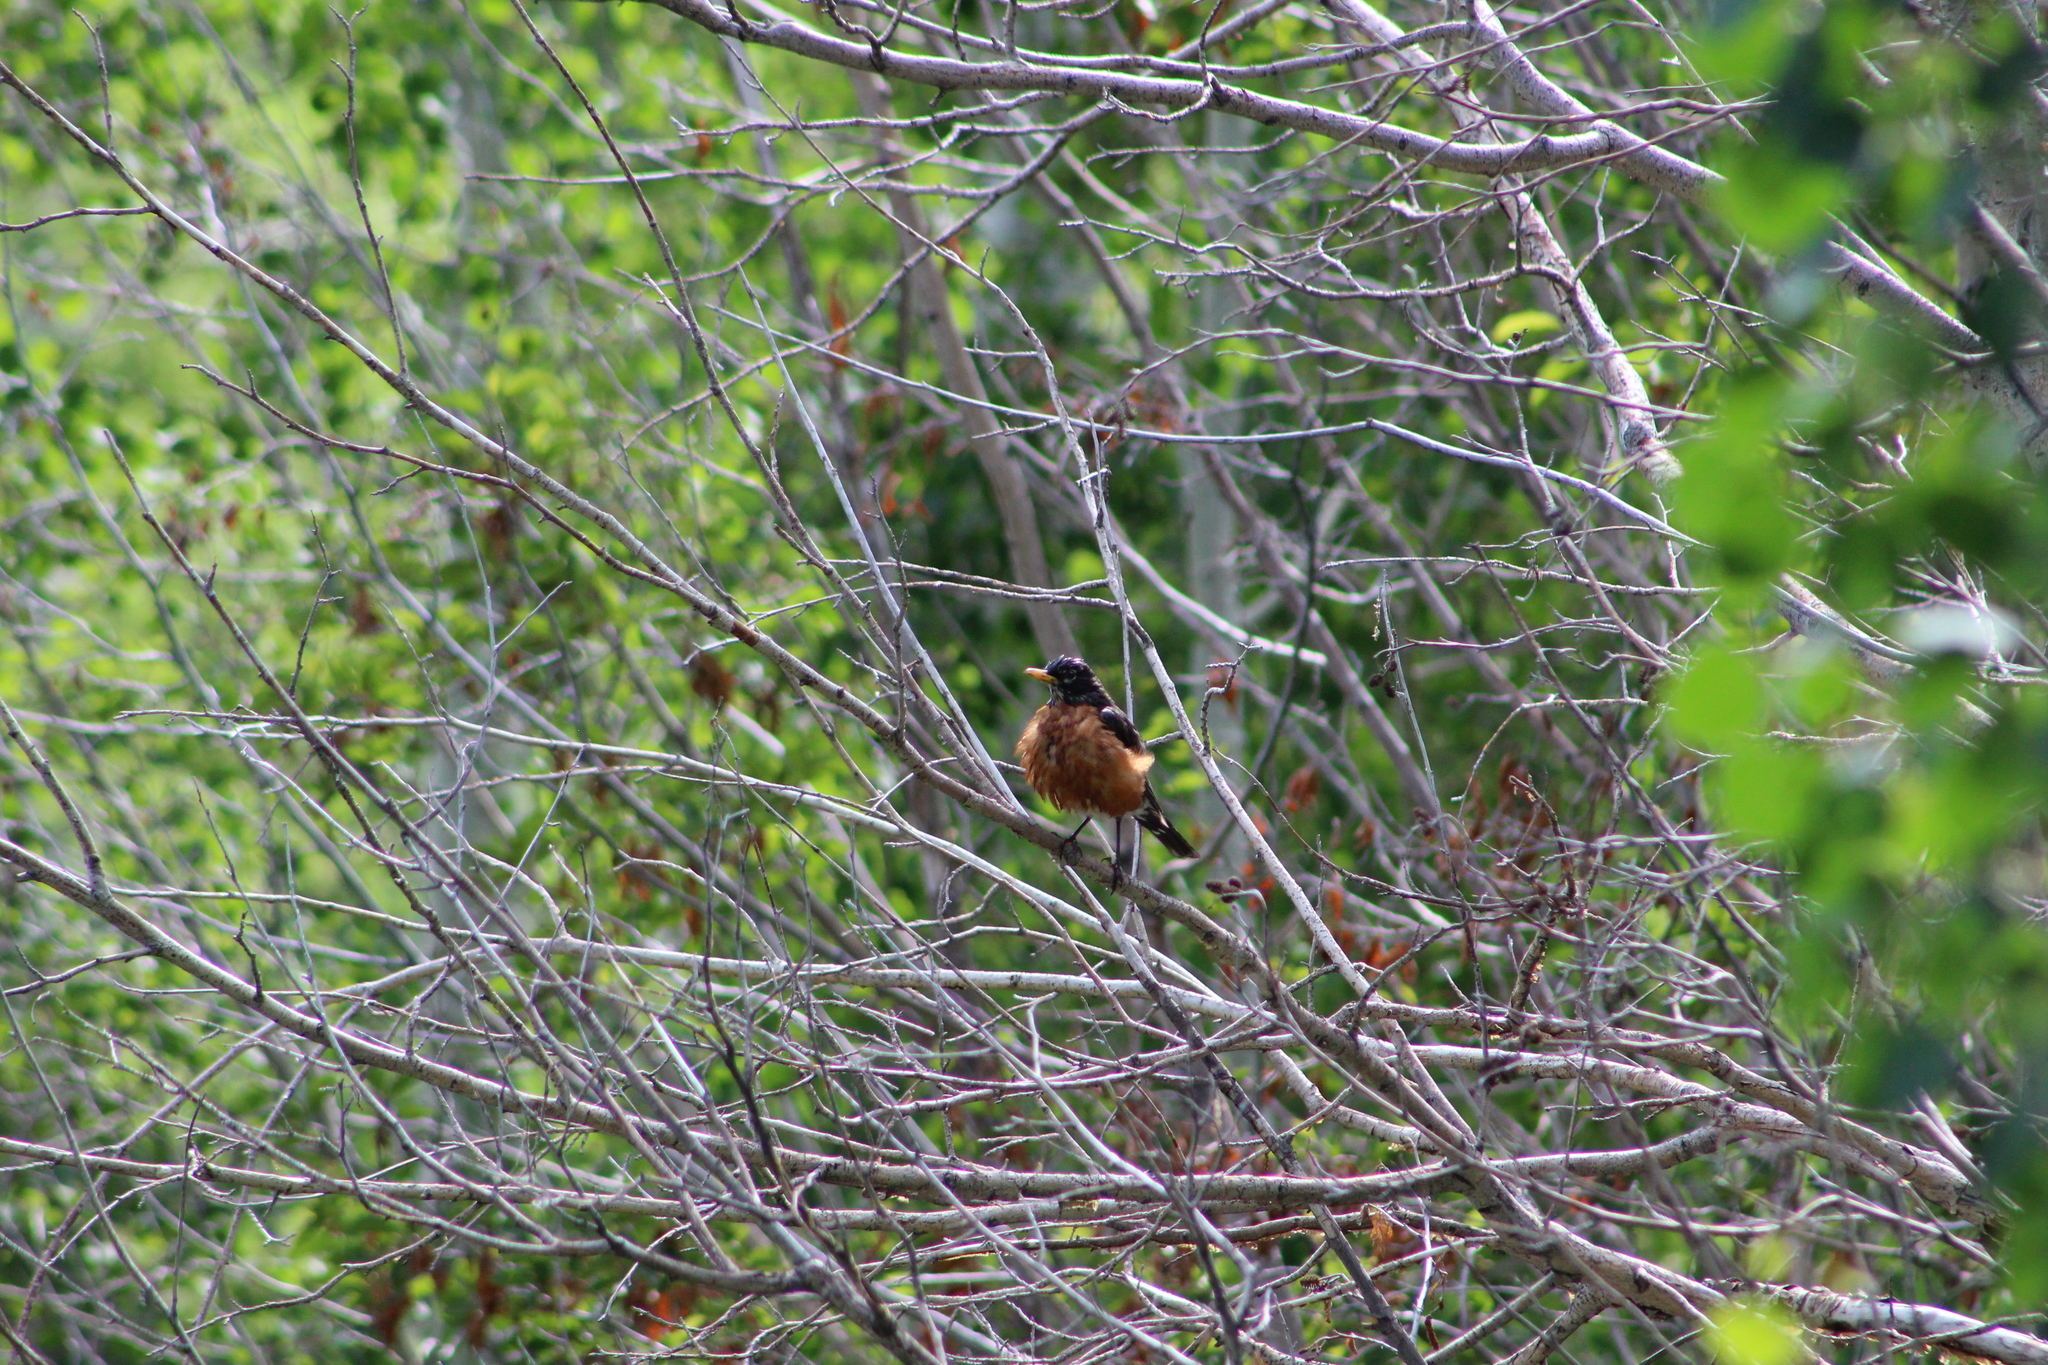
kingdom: Animalia
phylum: Chordata
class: Aves
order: Passeriformes
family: Turdidae
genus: Turdus
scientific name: Turdus migratorius
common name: American robin
